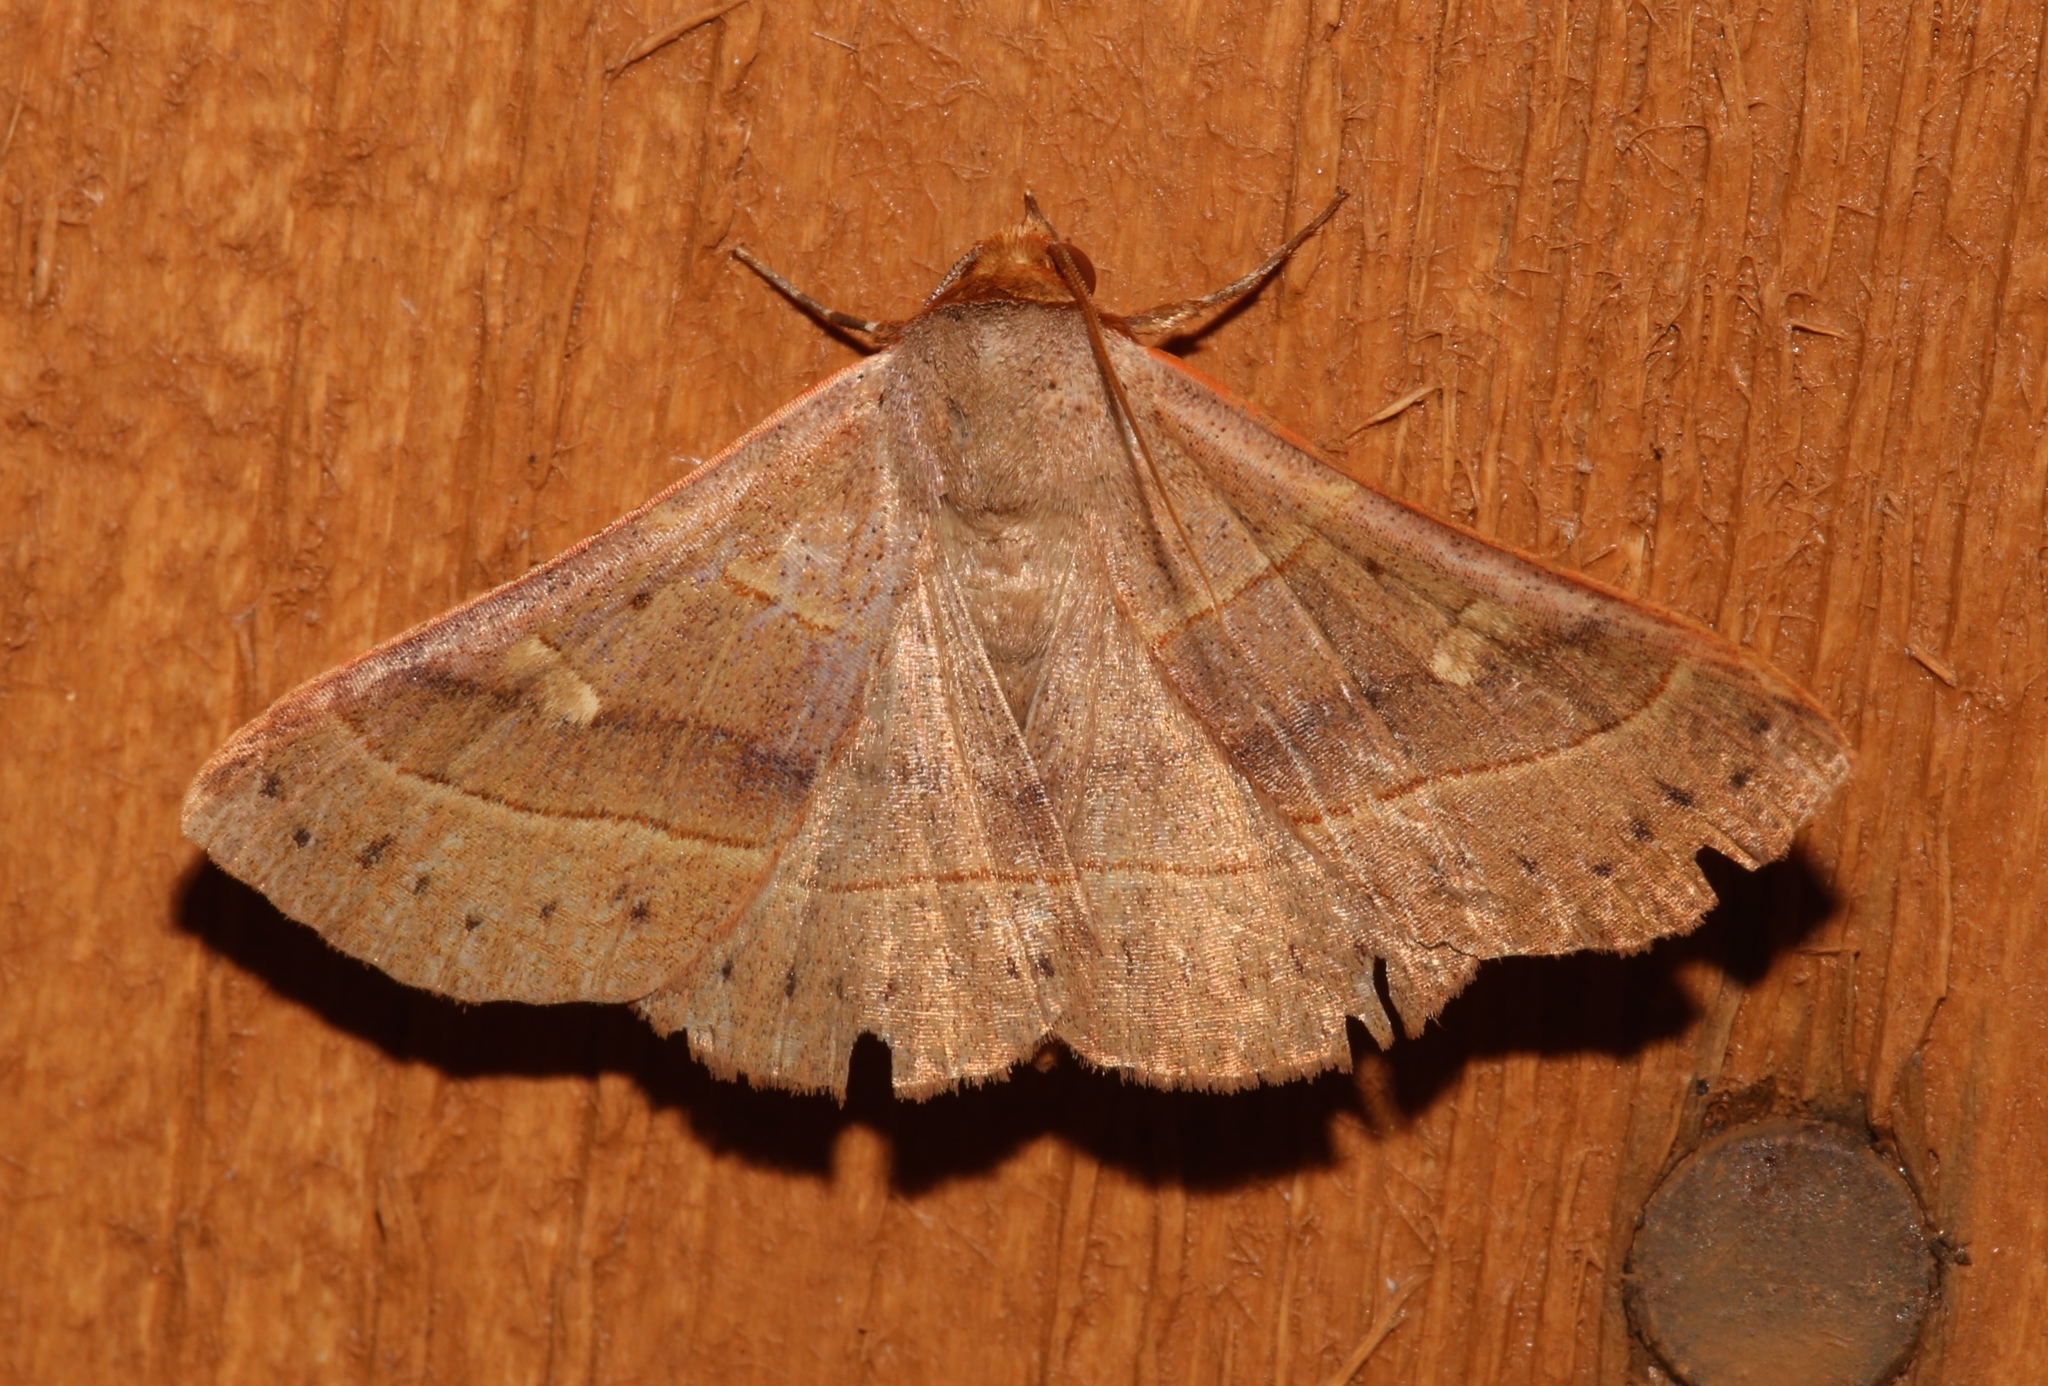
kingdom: Animalia
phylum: Arthropoda
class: Insecta
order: Lepidoptera
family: Erebidae
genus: Panopoda
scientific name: Panopoda rufimargo
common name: Red-lined panopoda moth
